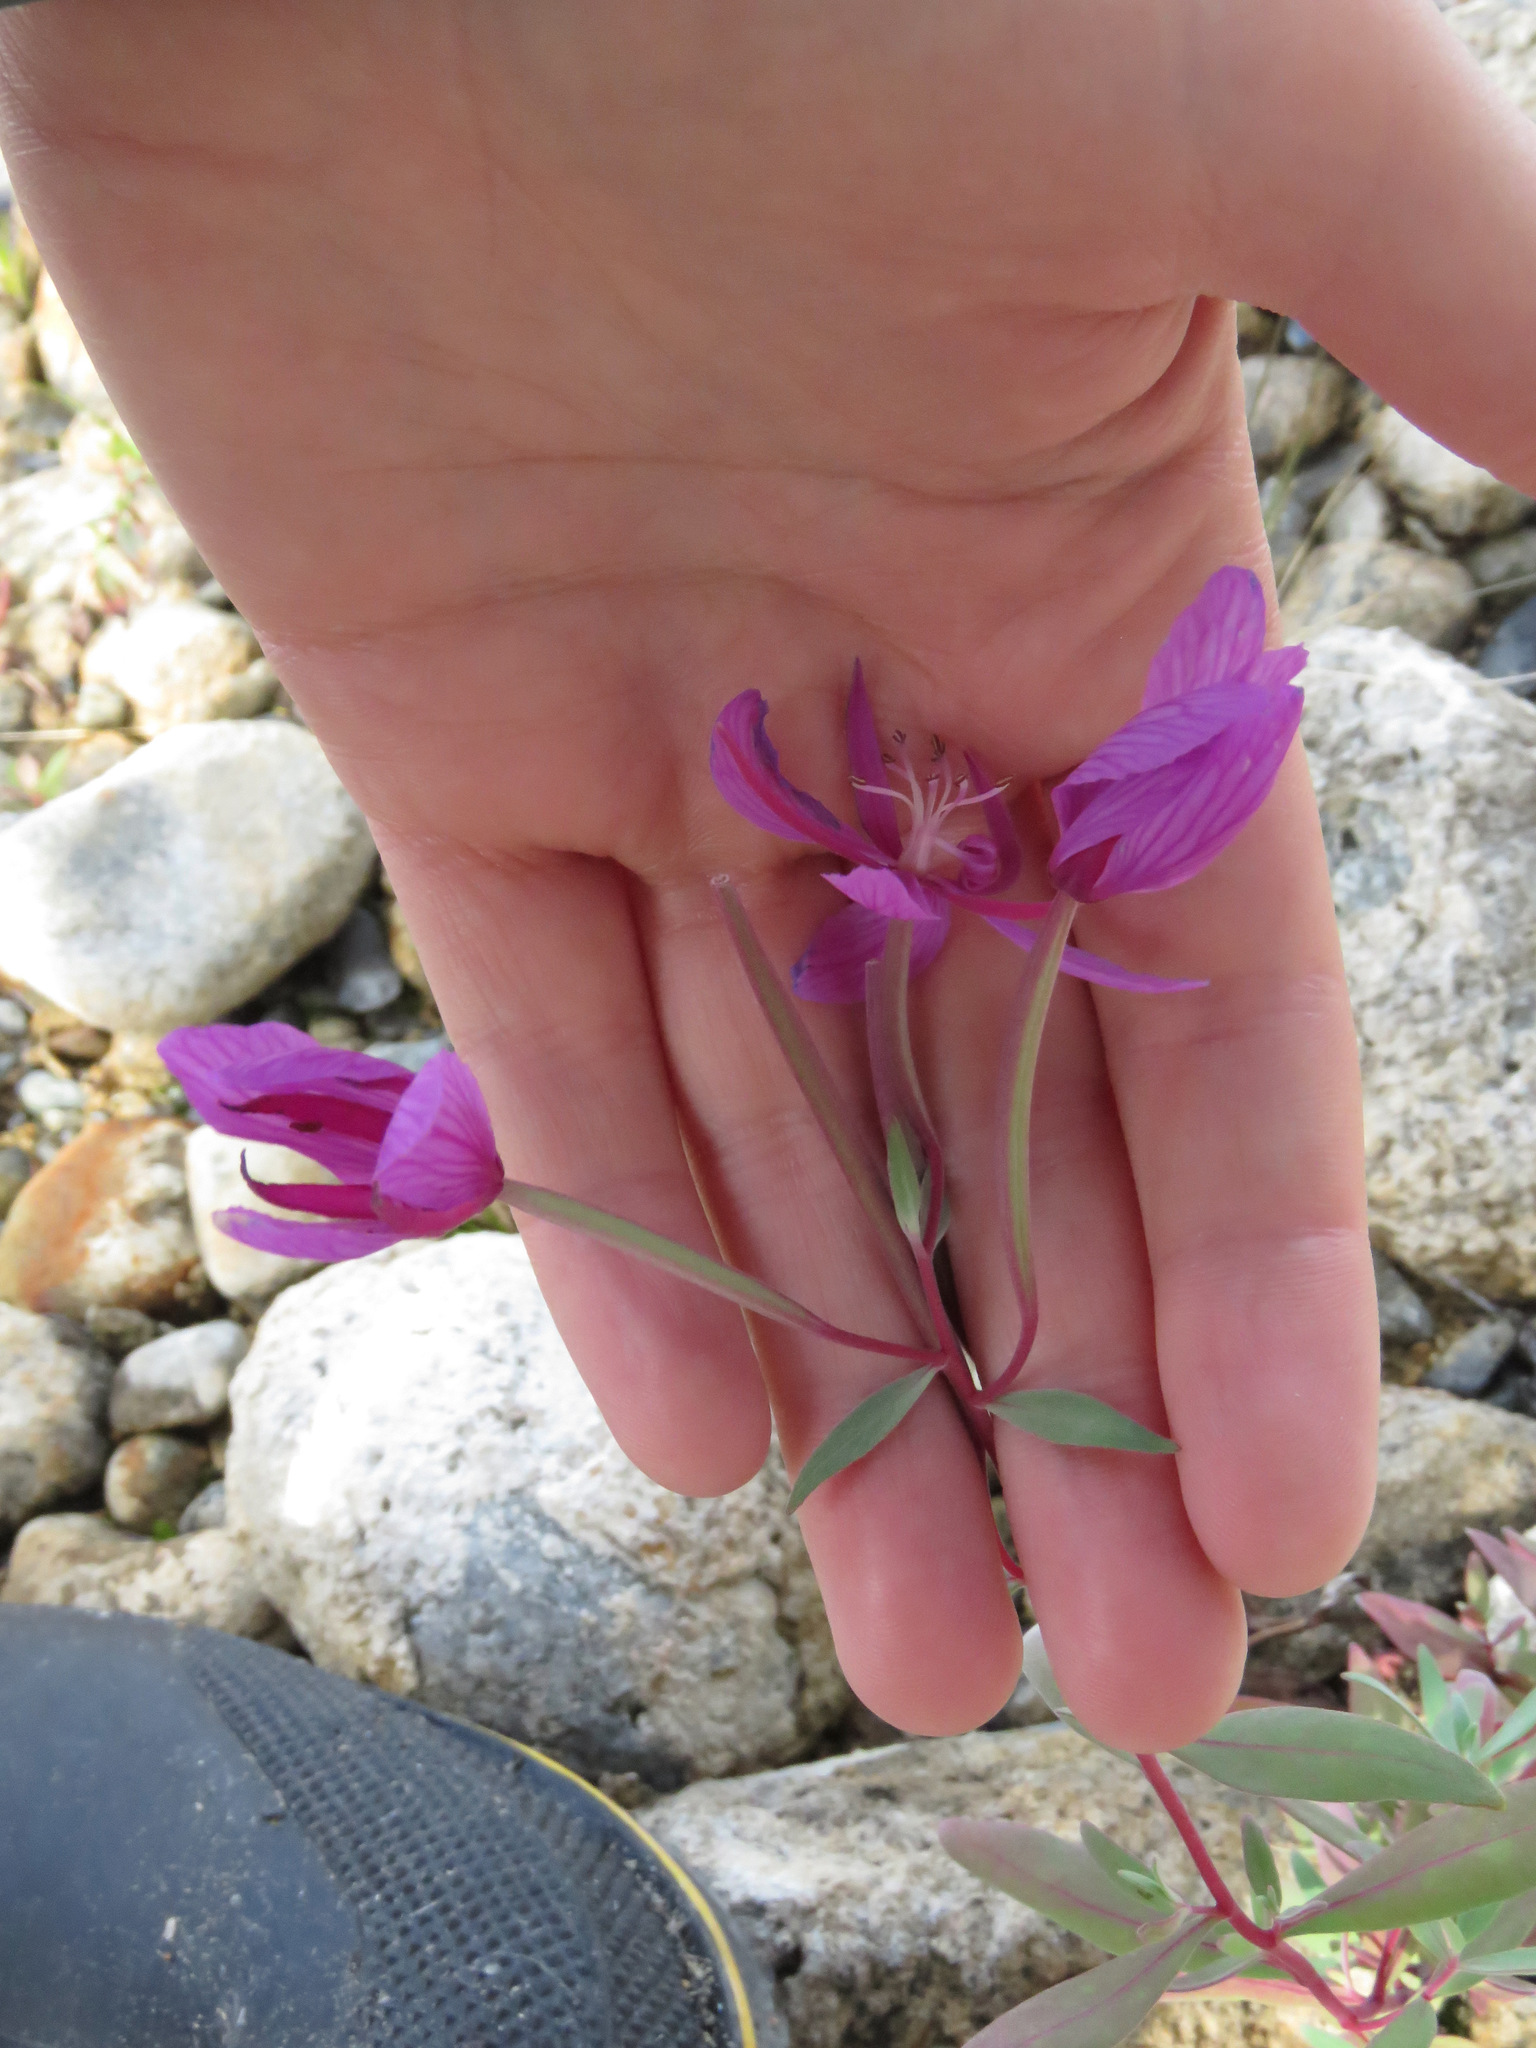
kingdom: Plantae
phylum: Tracheophyta
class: Magnoliopsida
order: Myrtales
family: Onagraceae
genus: Chamaenerion
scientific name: Chamaenerion latifolium
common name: Dwarf fireweed
